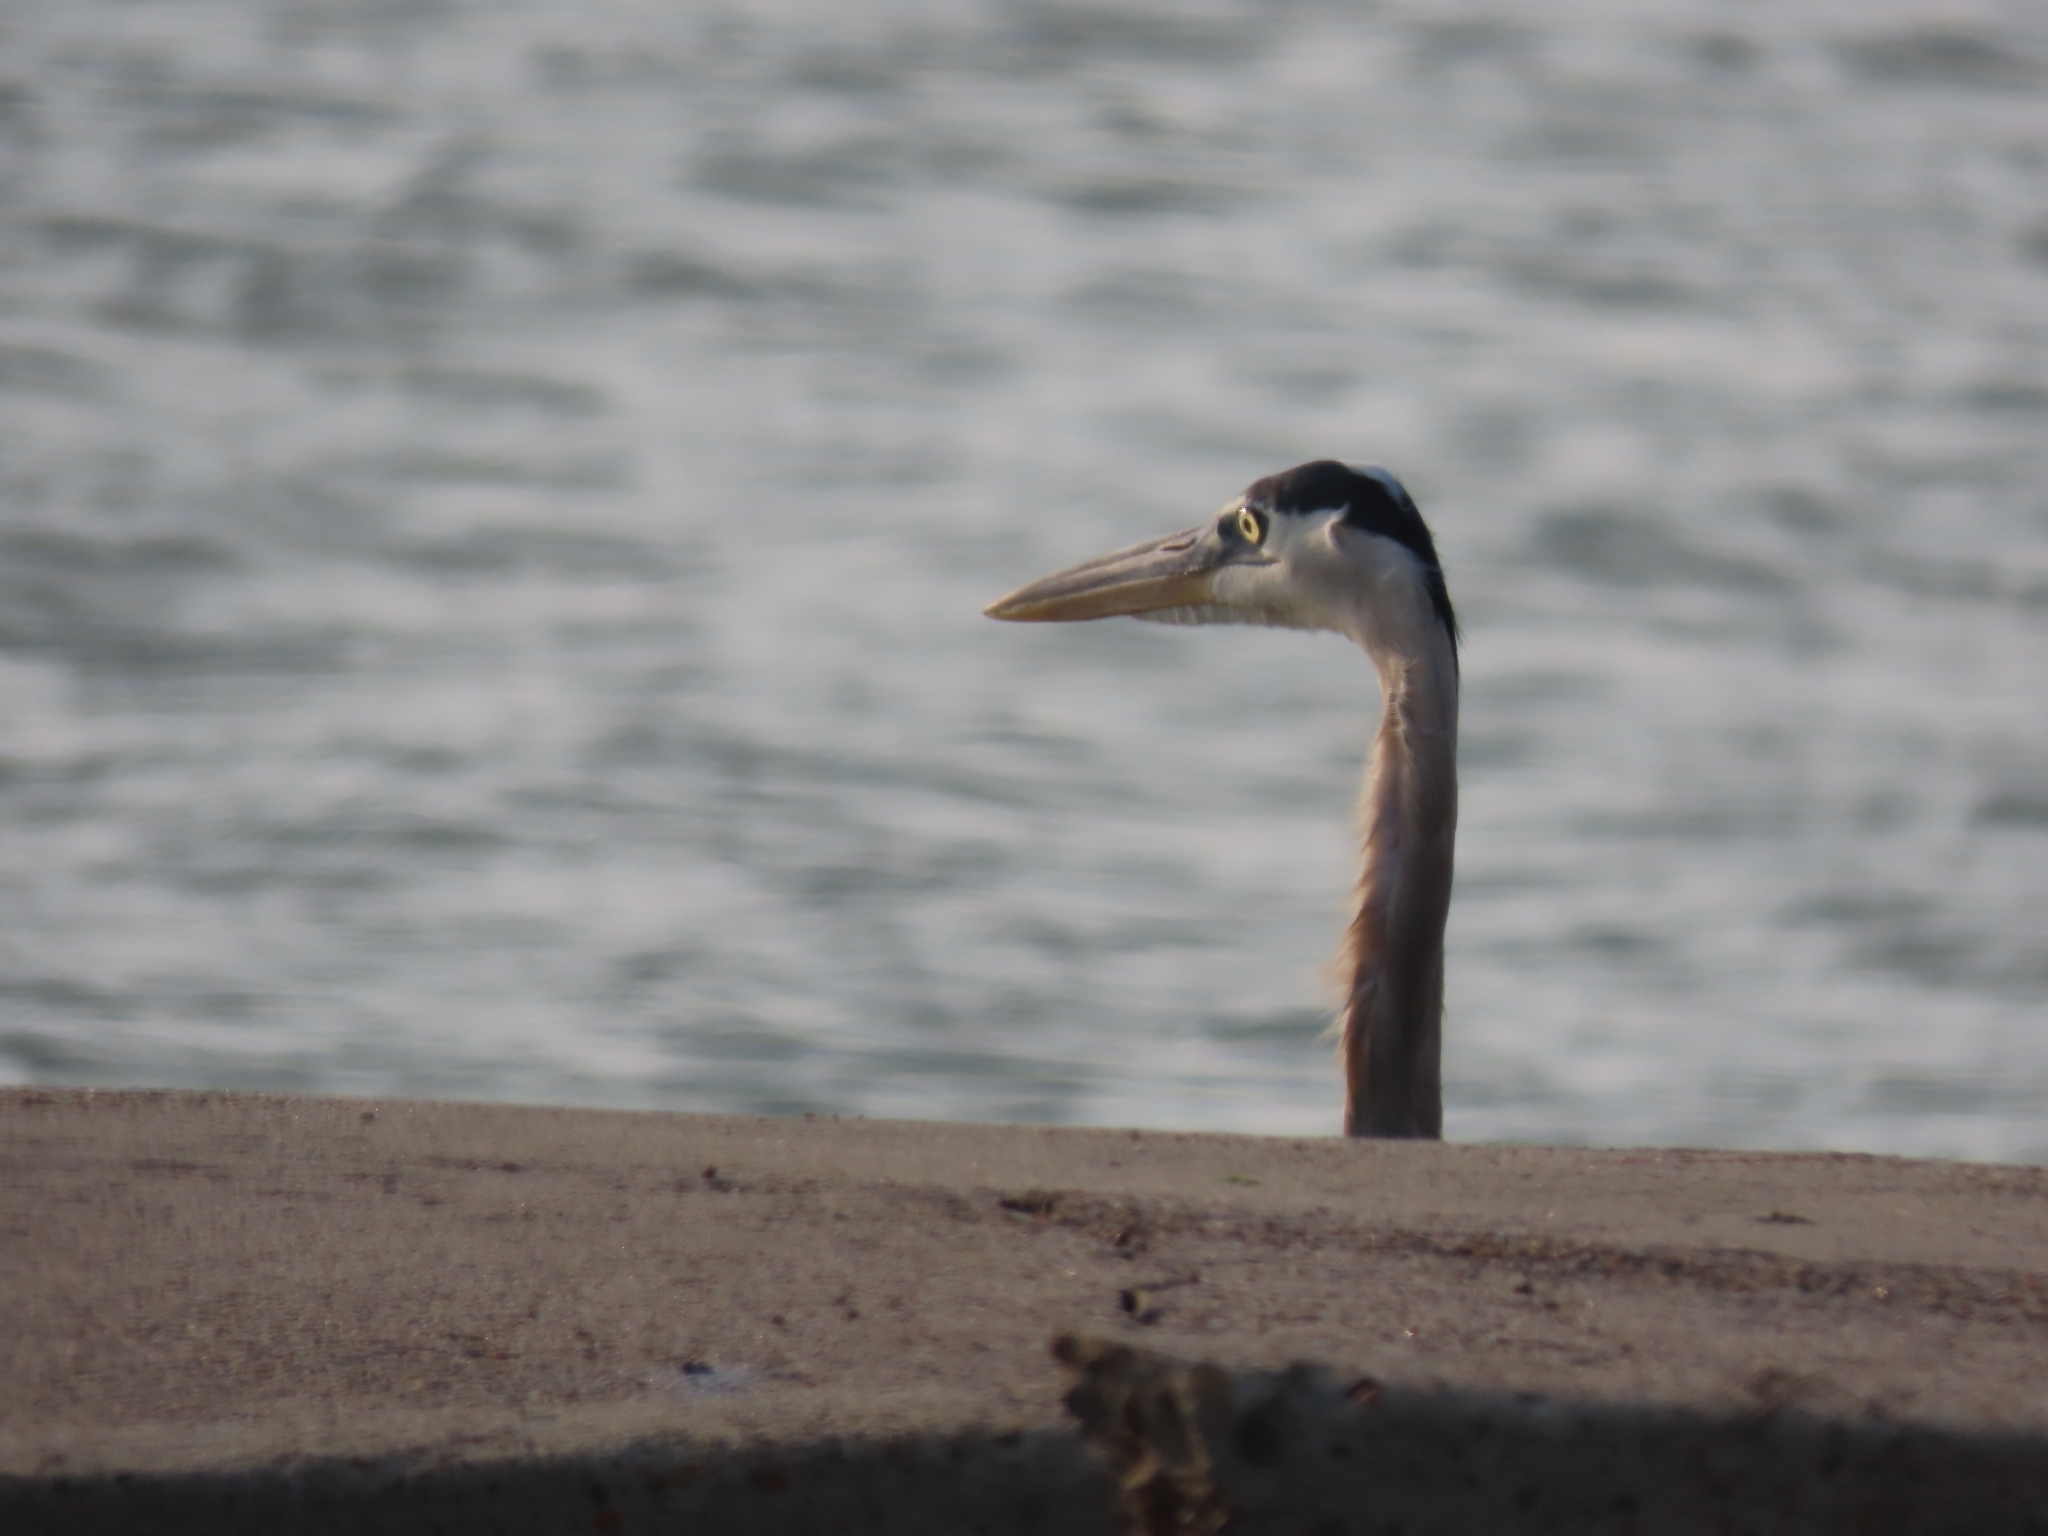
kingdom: Animalia
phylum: Chordata
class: Aves
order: Pelecaniformes
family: Ardeidae
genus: Ardea
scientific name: Ardea herodias
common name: Great blue heron
